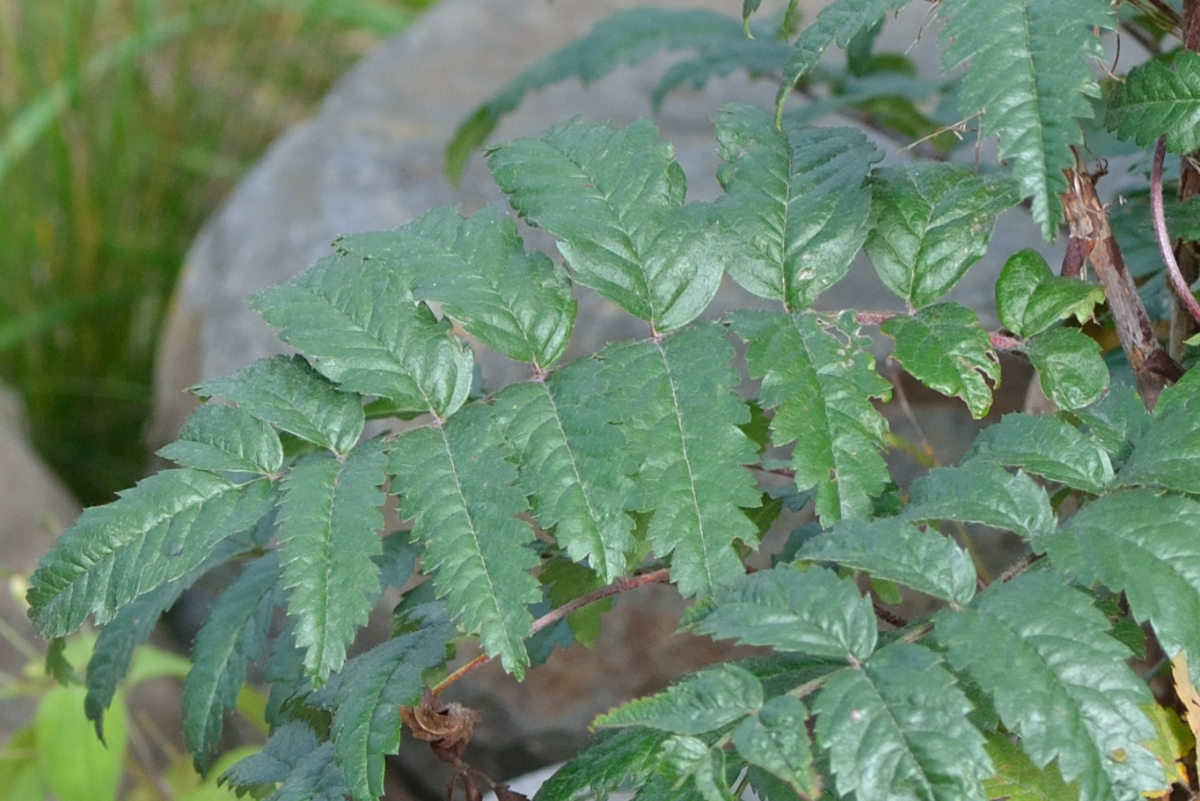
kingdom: Plantae
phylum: Tracheophyta
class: Magnoliopsida
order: Rosales
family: Rosaceae
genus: Sorbus
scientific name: Sorbus aucuparia
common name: Rowan
